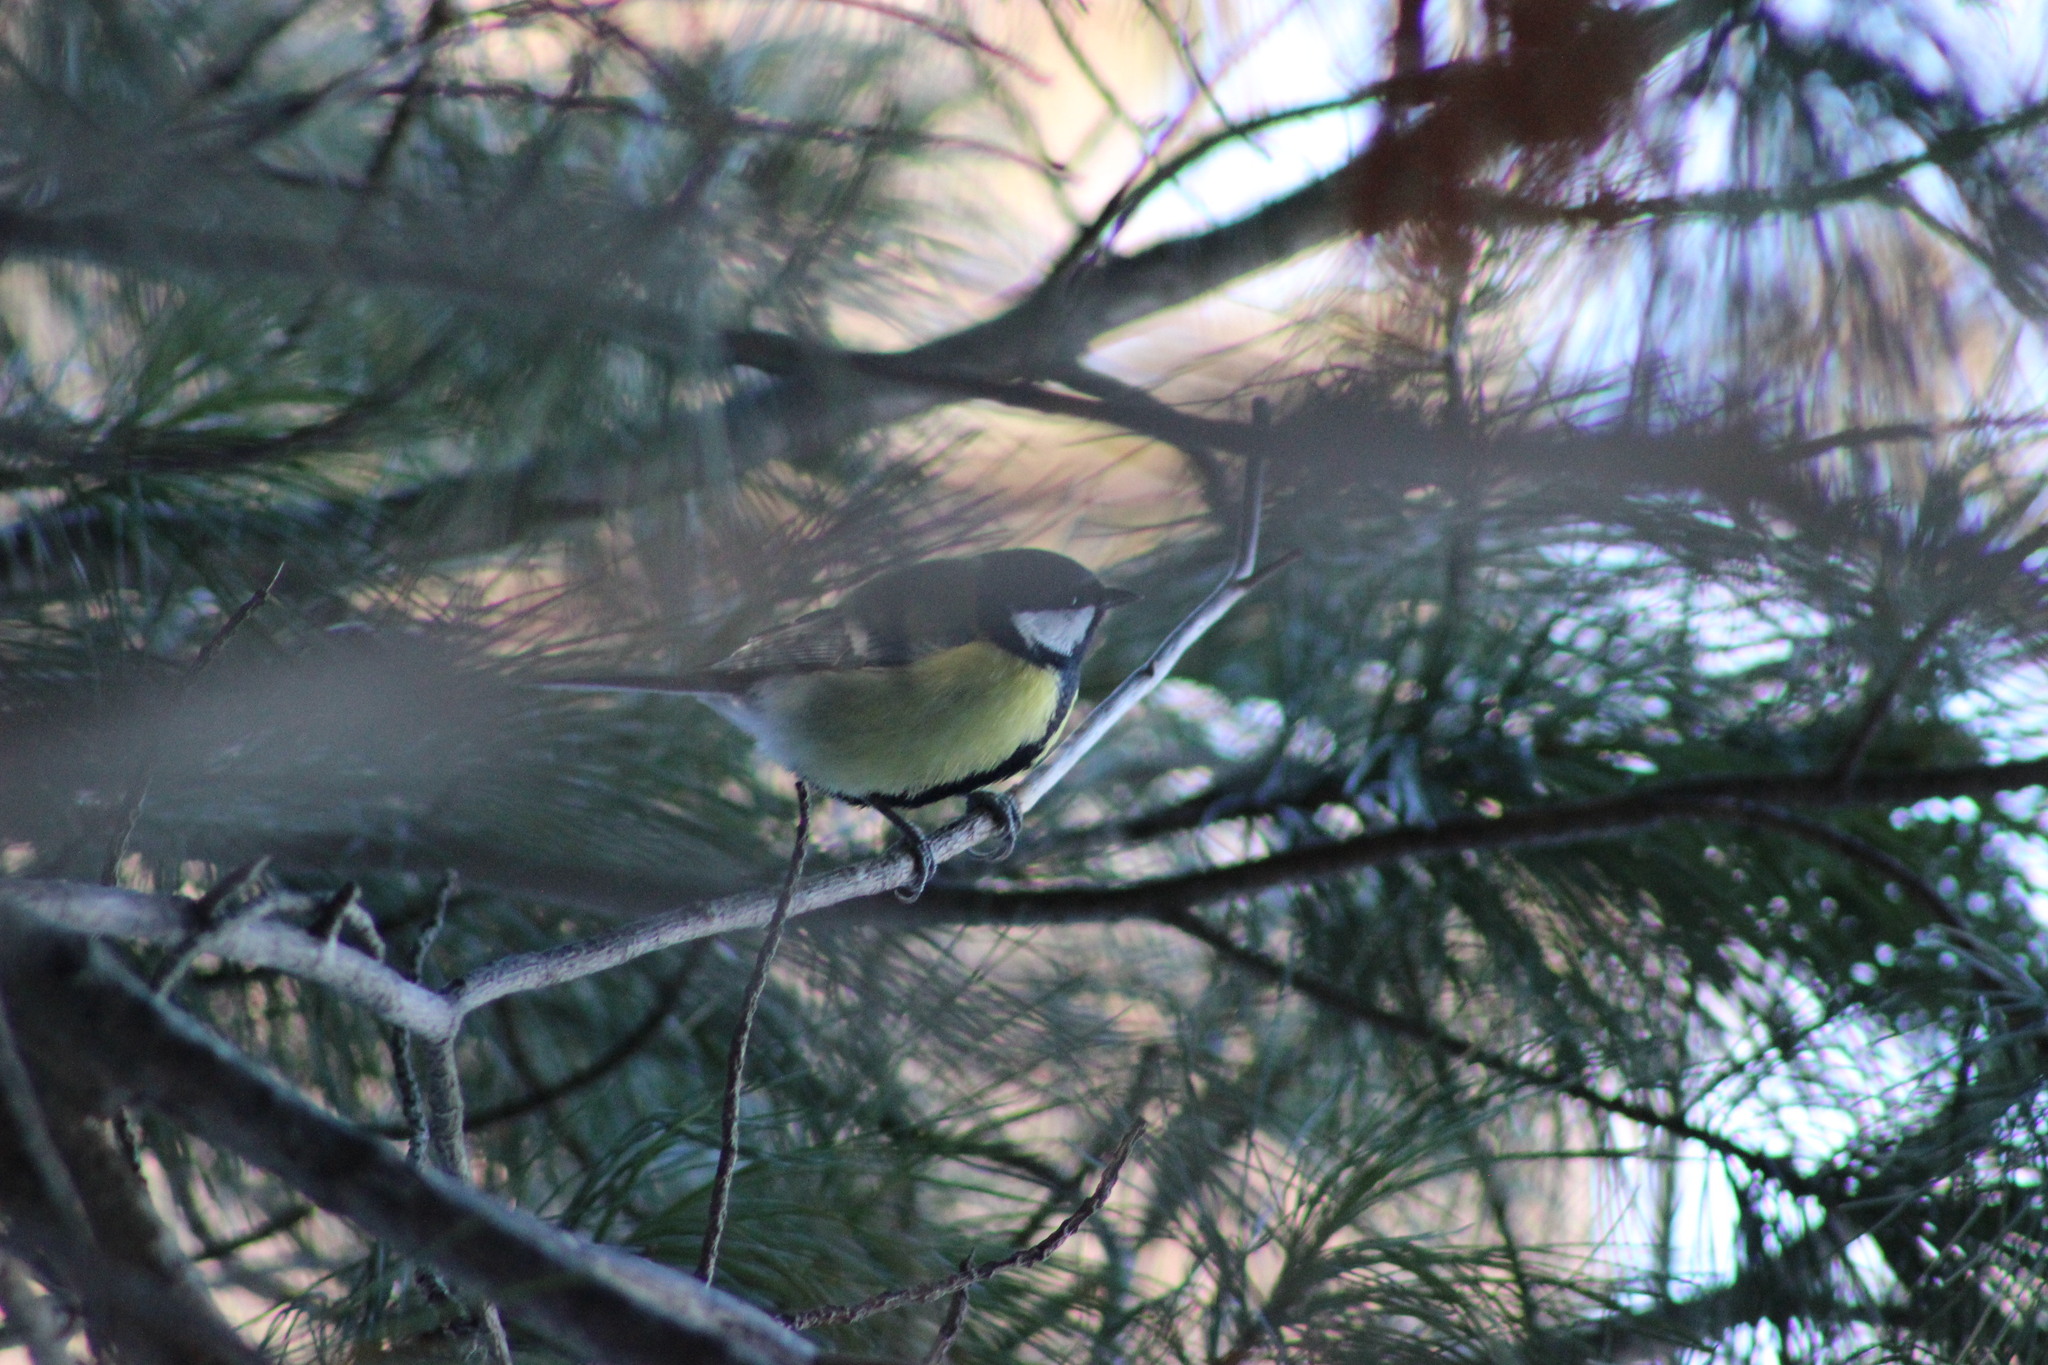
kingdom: Animalia
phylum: Chordata
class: Aves
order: Passeriformes
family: Paridae
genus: Parus
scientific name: Parus major
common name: Great tit
